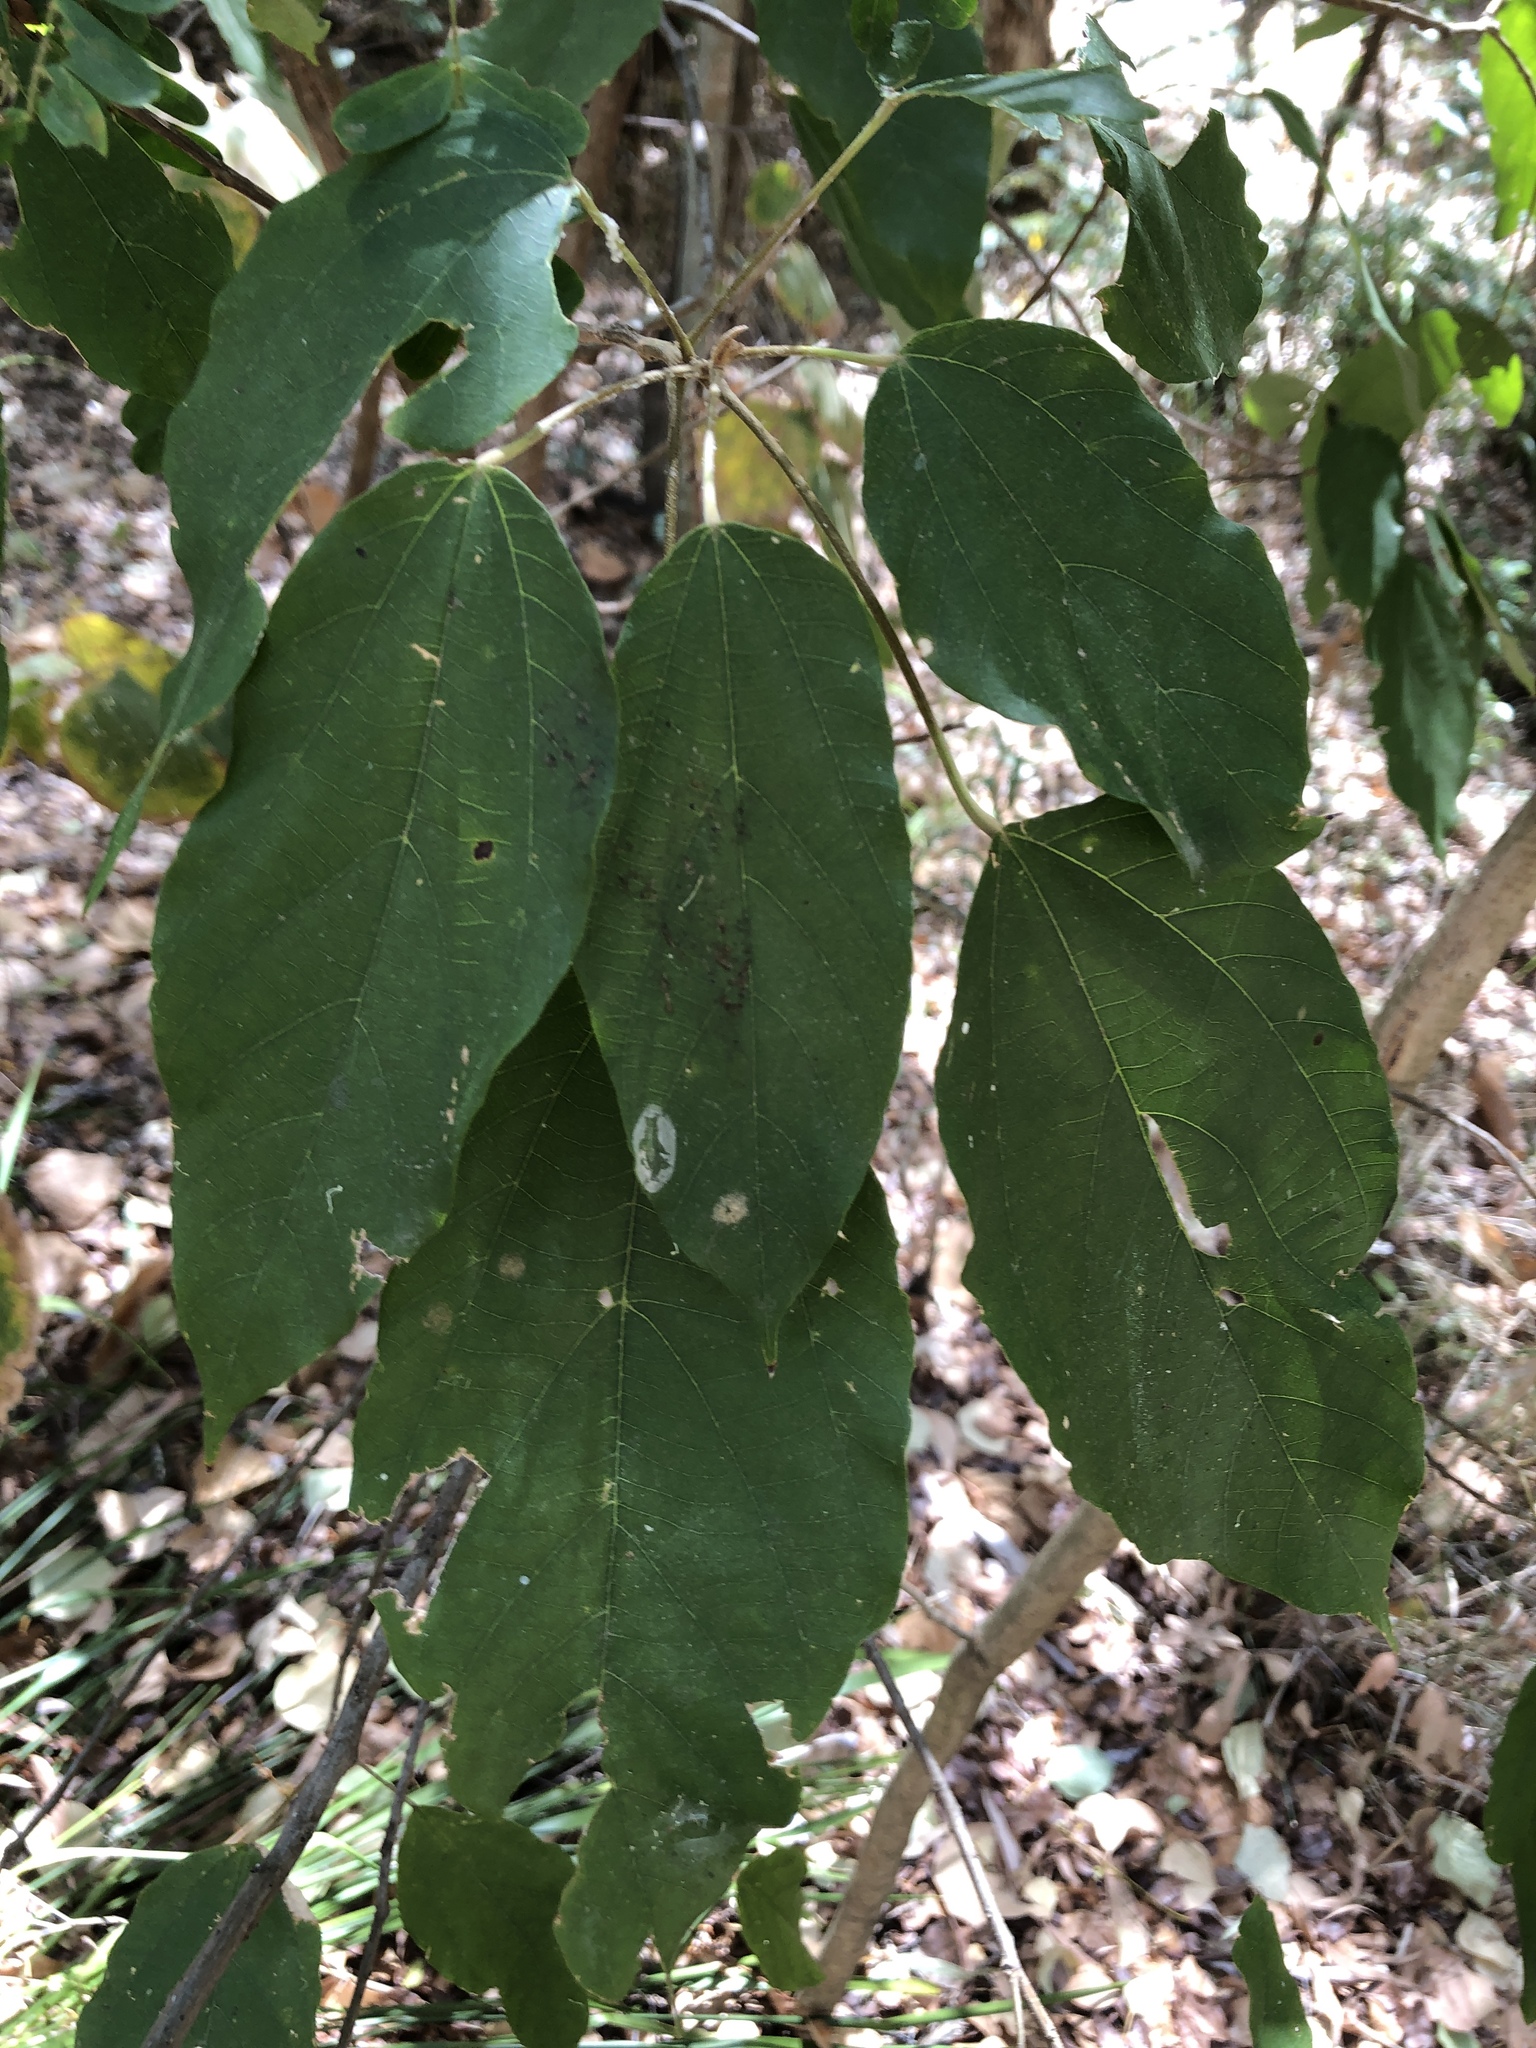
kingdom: Plantae
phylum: Tracheophyta
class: Magnoliopsida
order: Malpighiales
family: Euphorbiaceae
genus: Mallotus
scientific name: Mallotus philippensis
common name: Kamala tree
